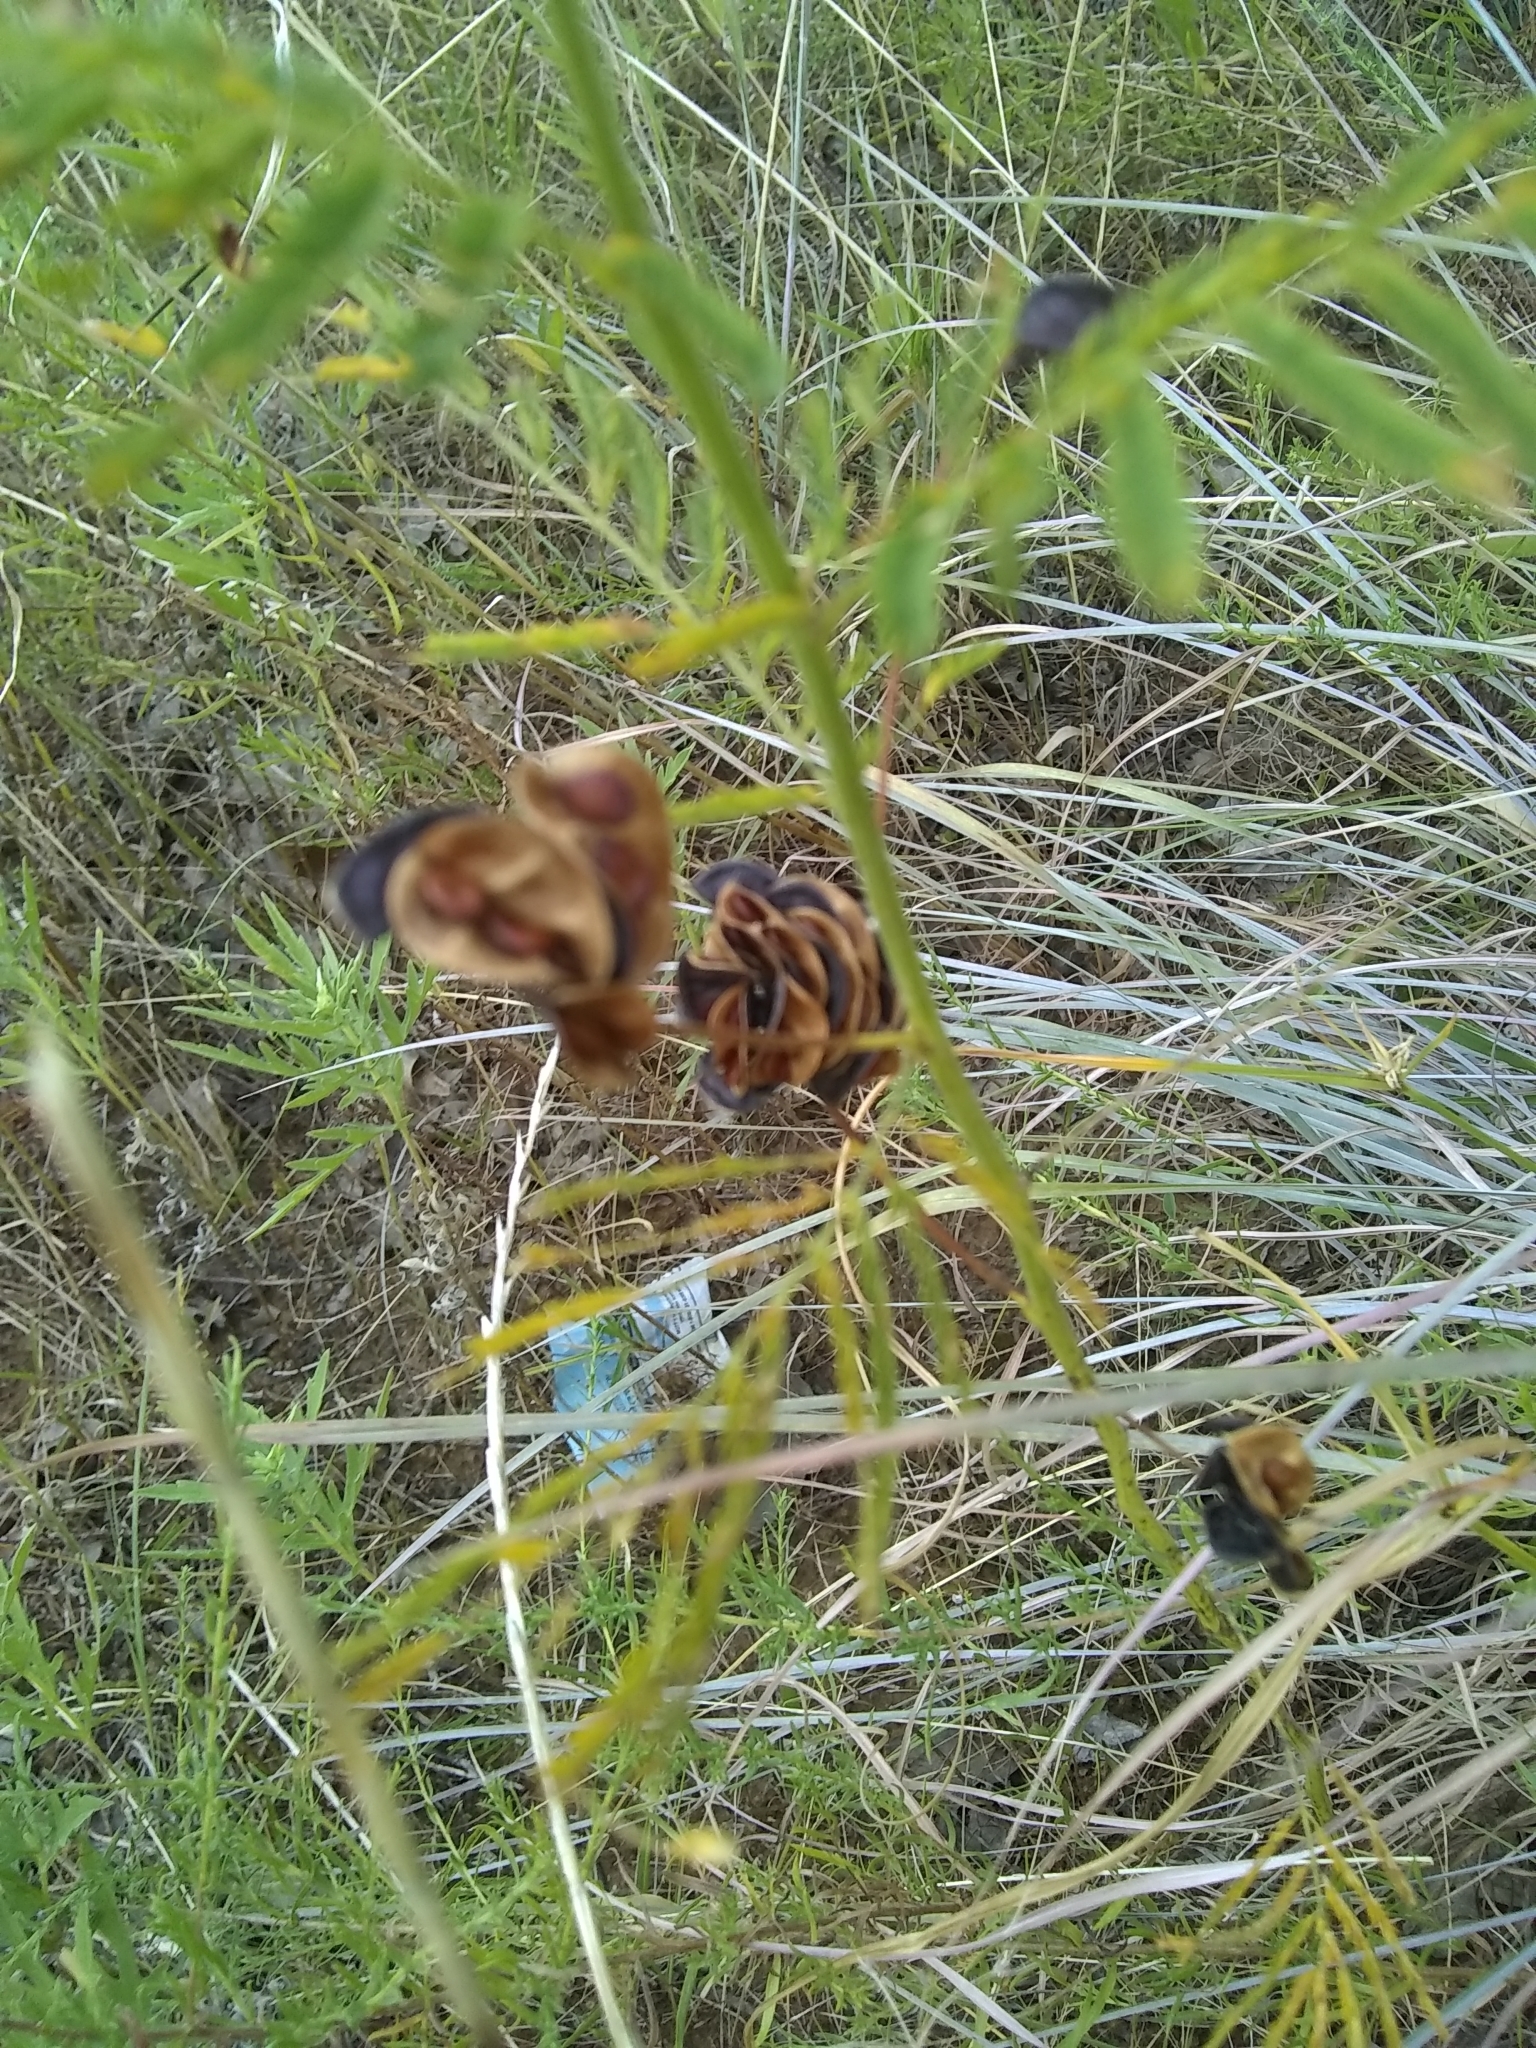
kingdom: Plantae
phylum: Tracheophyta
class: Magnoliopsida
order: Fabales
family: Fabaceae
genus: Desmanthus
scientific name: Desmanthus illinoensis
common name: Illinois bundle-flower
